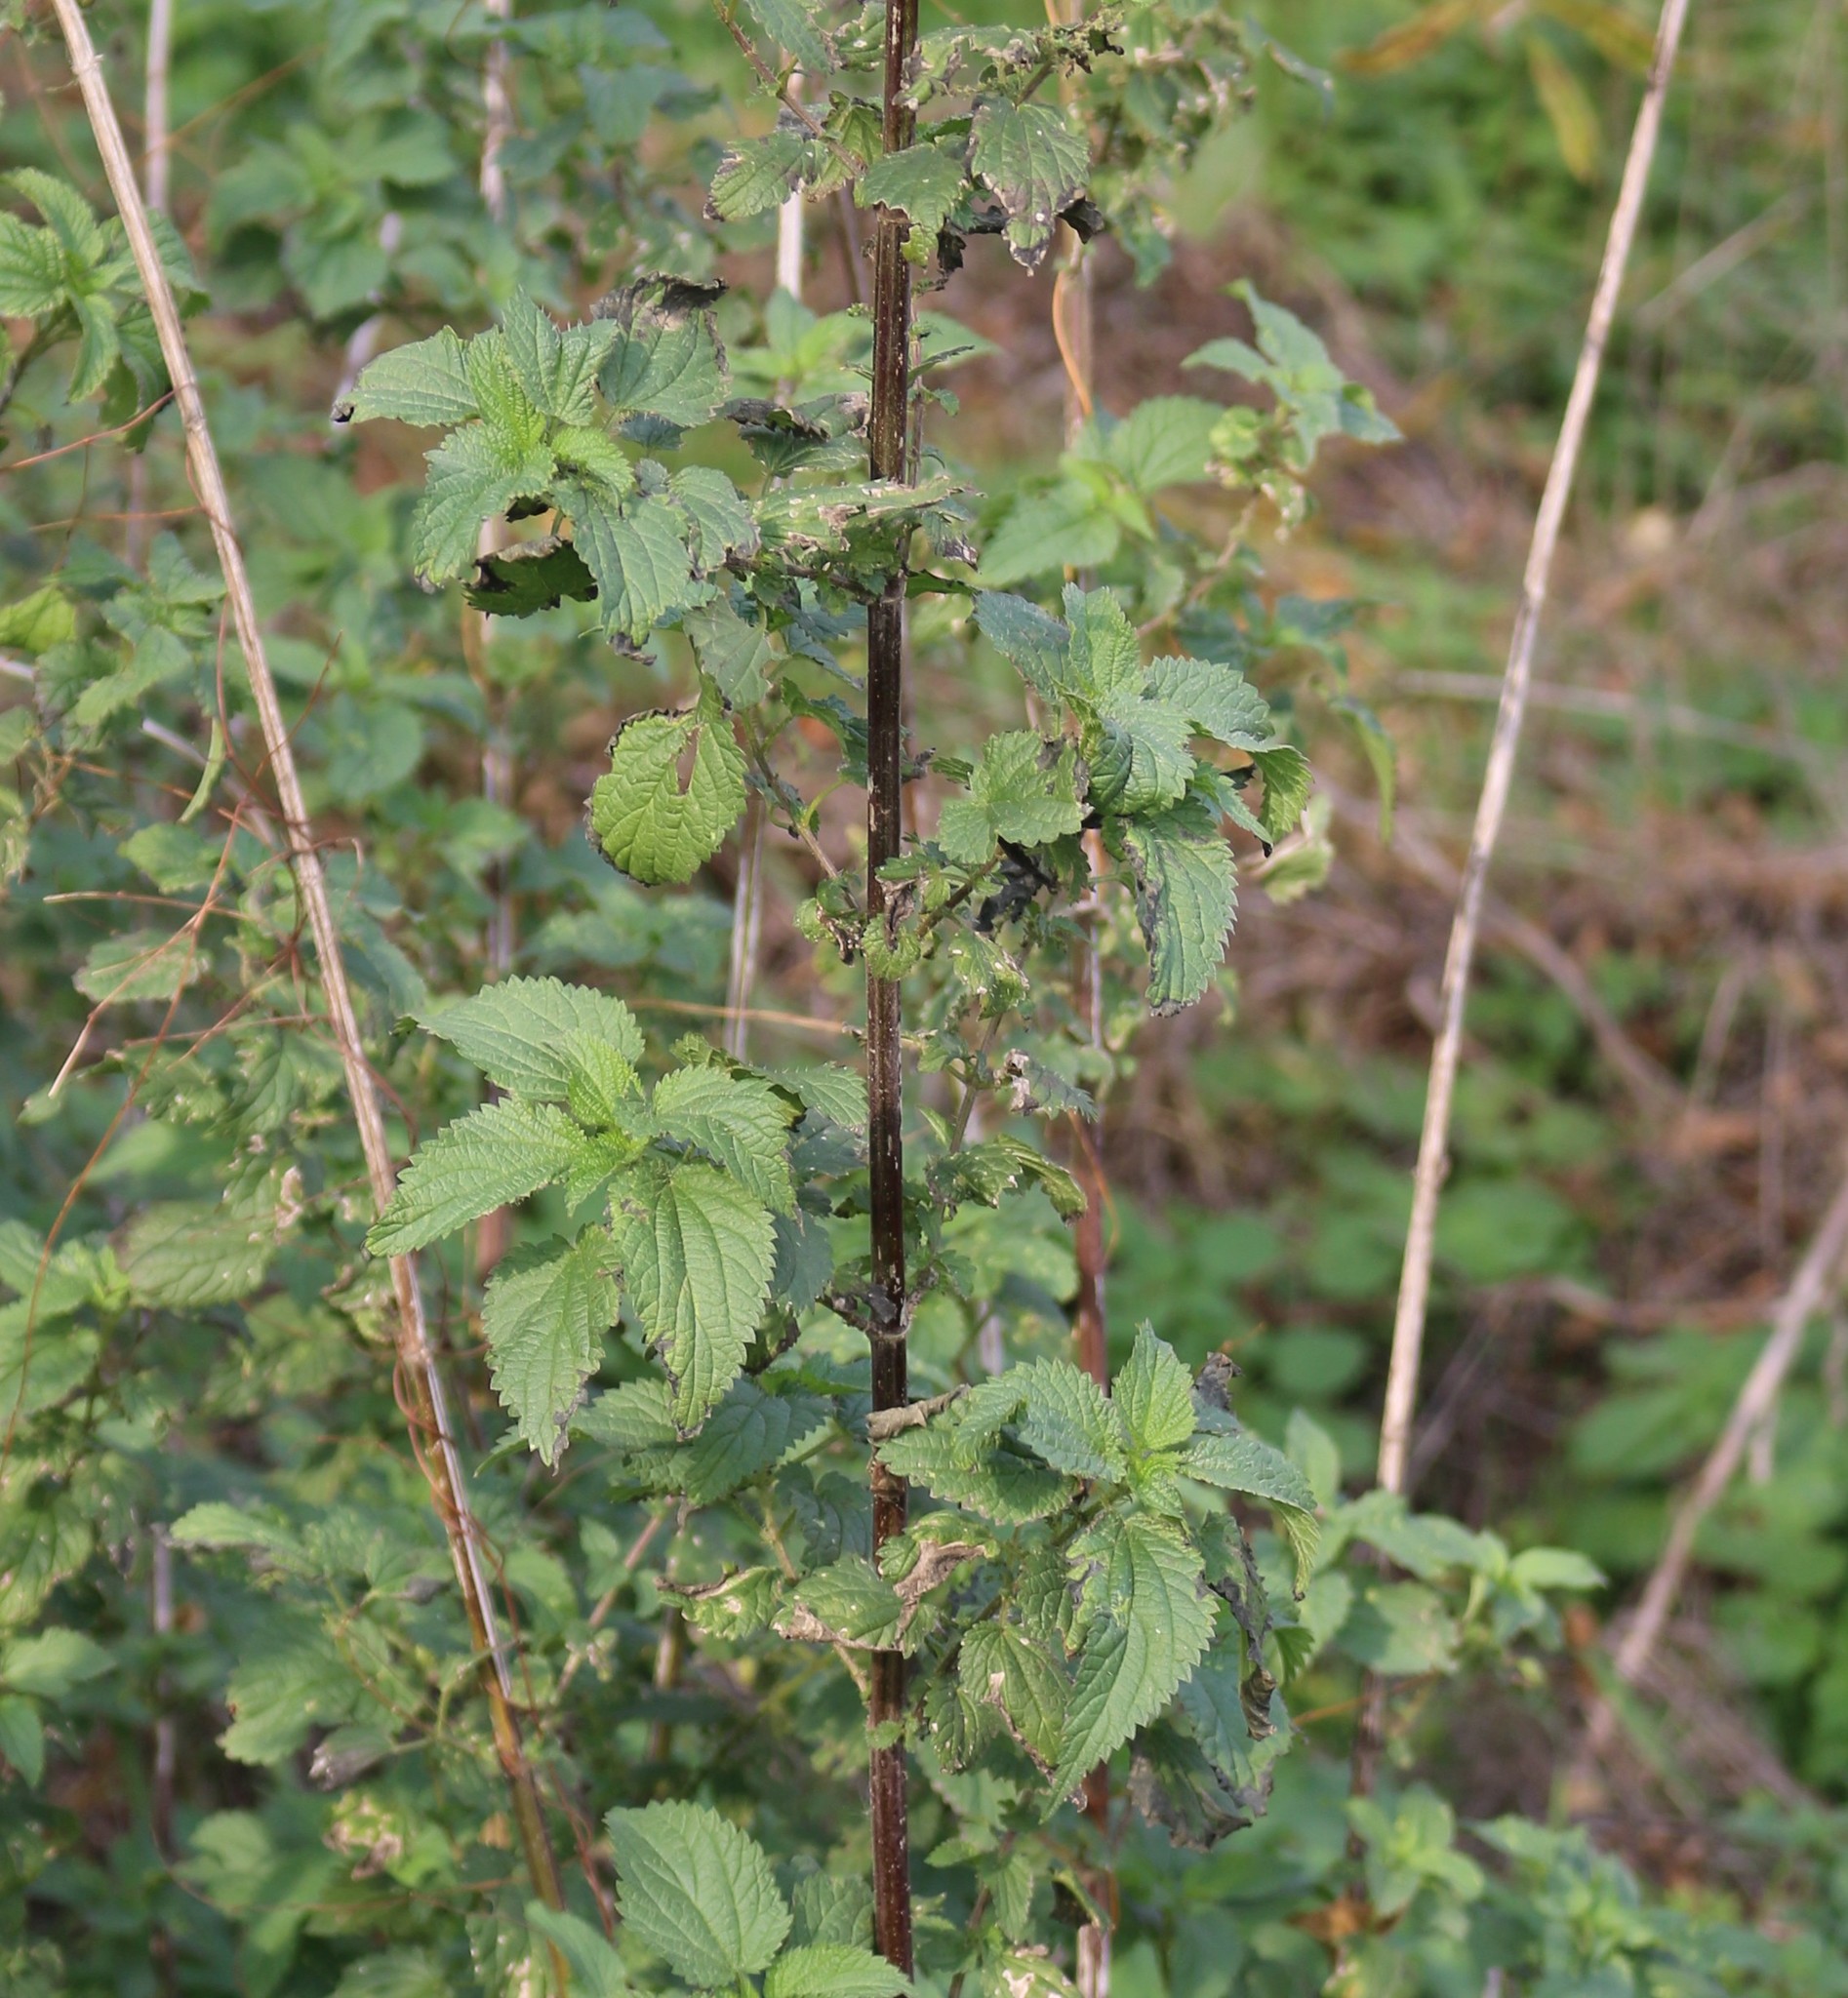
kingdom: Plantae
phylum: Tracheophyta
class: Magnoliopsida
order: Rosales
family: Urticaceae
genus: Urtica
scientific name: Urtica dioica
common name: Common nettle
